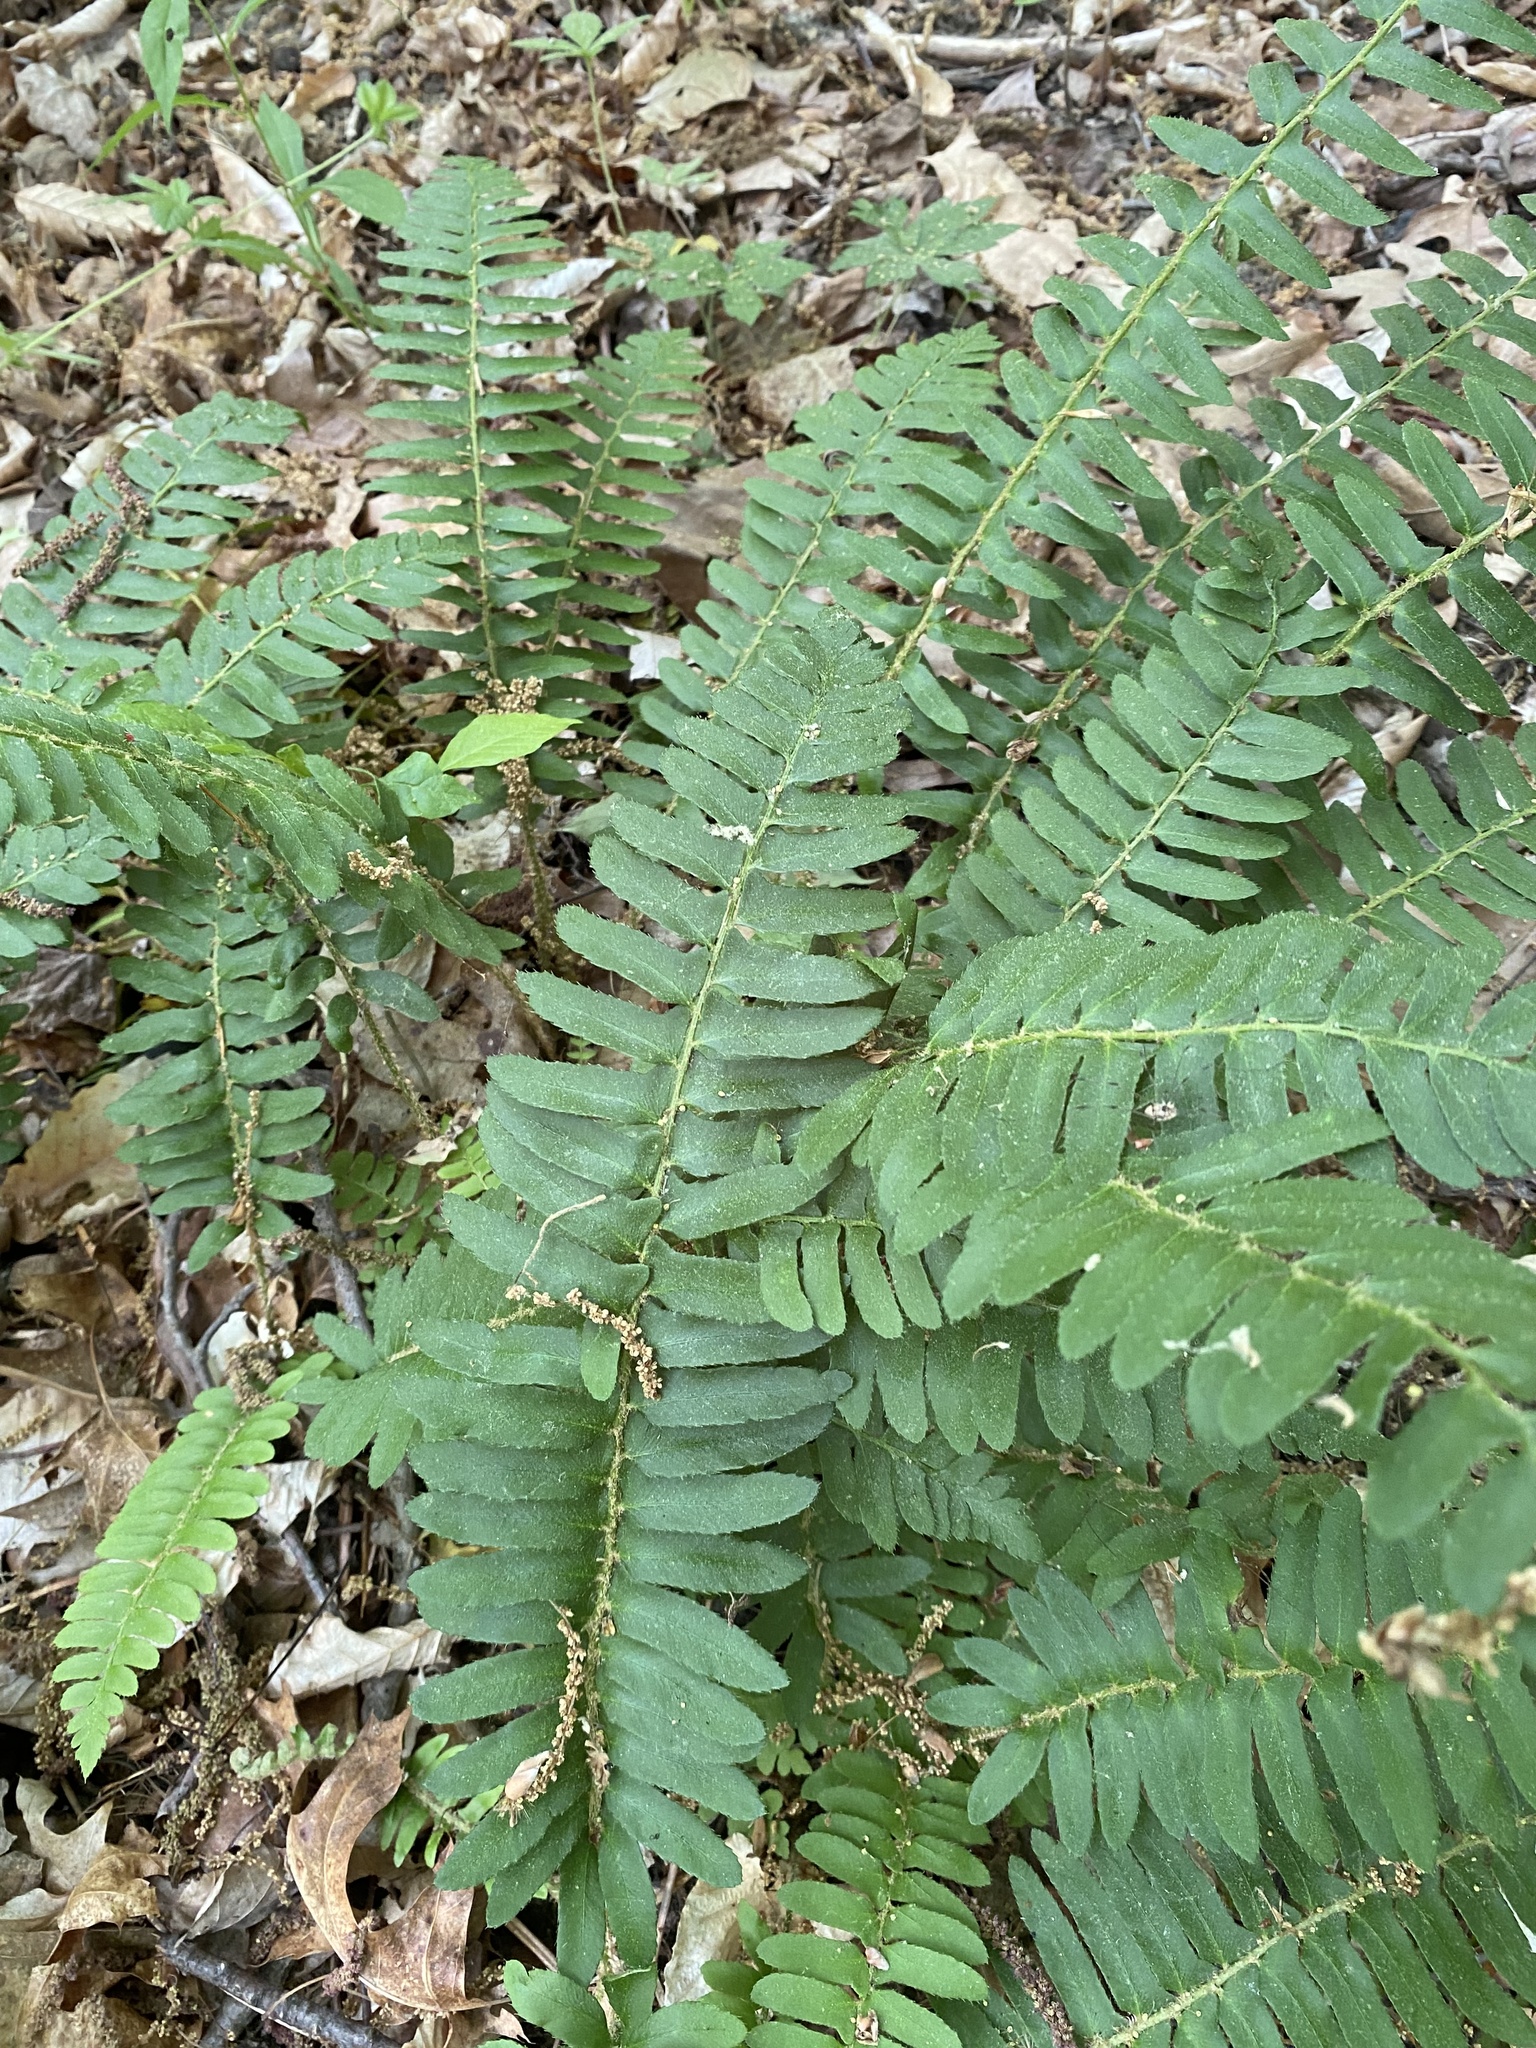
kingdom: Plantae
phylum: Tracheophyta
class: Polypodiopsida
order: Polypodiales
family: Dryopteridaceae
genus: Polystichum
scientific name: Polystichum acrostichoides
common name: Christmas fern
